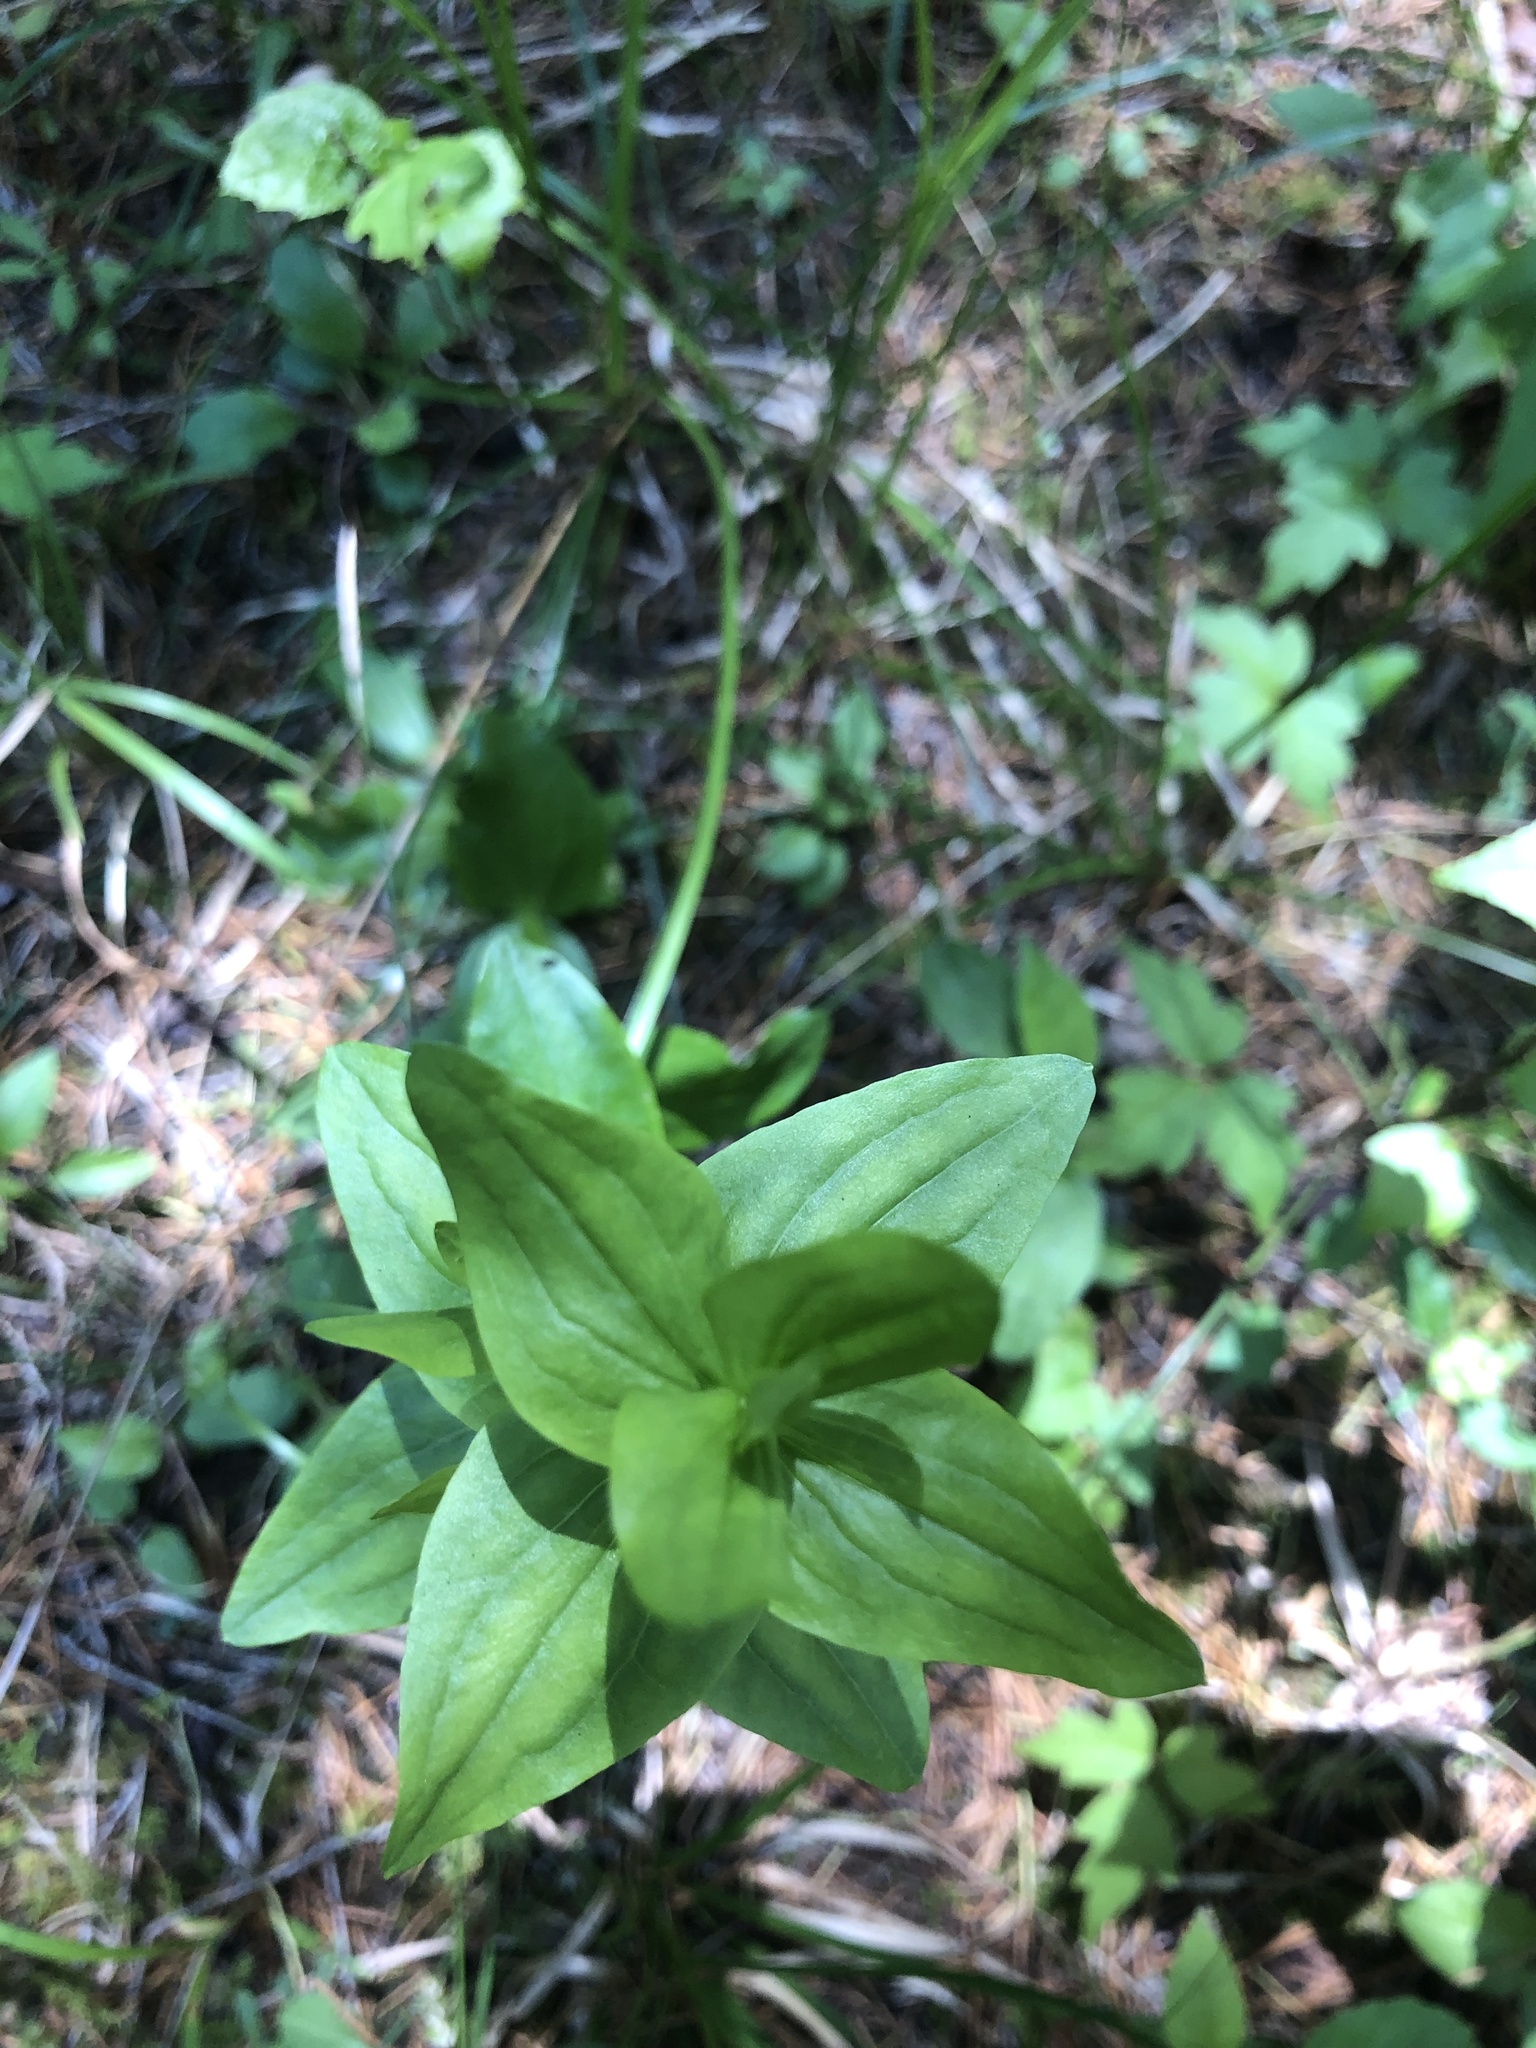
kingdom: Plantae
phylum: Tracheophyta
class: Magnoliopsida
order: Gentianales
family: Gentianaceae
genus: Sabatia
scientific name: Sabatia angularis
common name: Rose-pink
